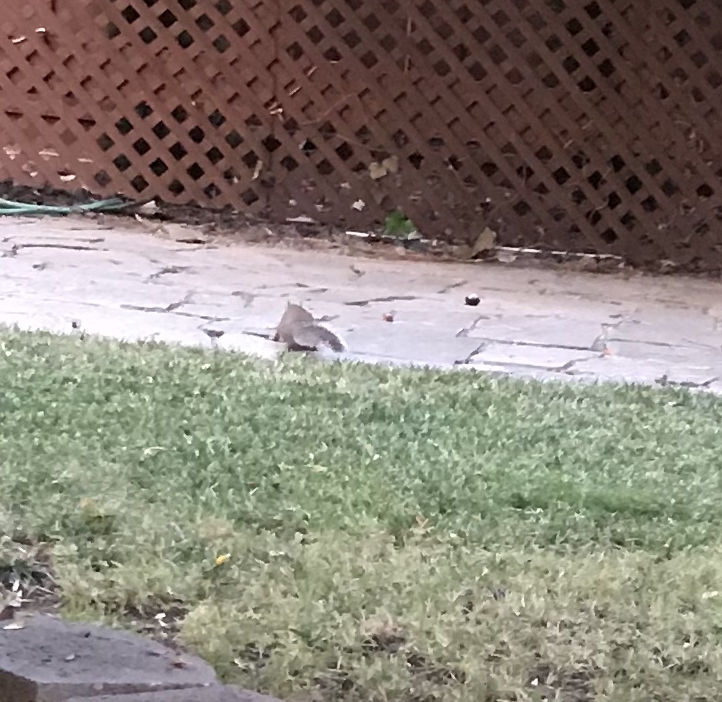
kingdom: Animalia
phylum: Chordata
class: Mammalia
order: Rodentia
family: Sciuridae
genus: Sciurus
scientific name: Sciurus carolinensis
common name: Eastern gray squirrel
